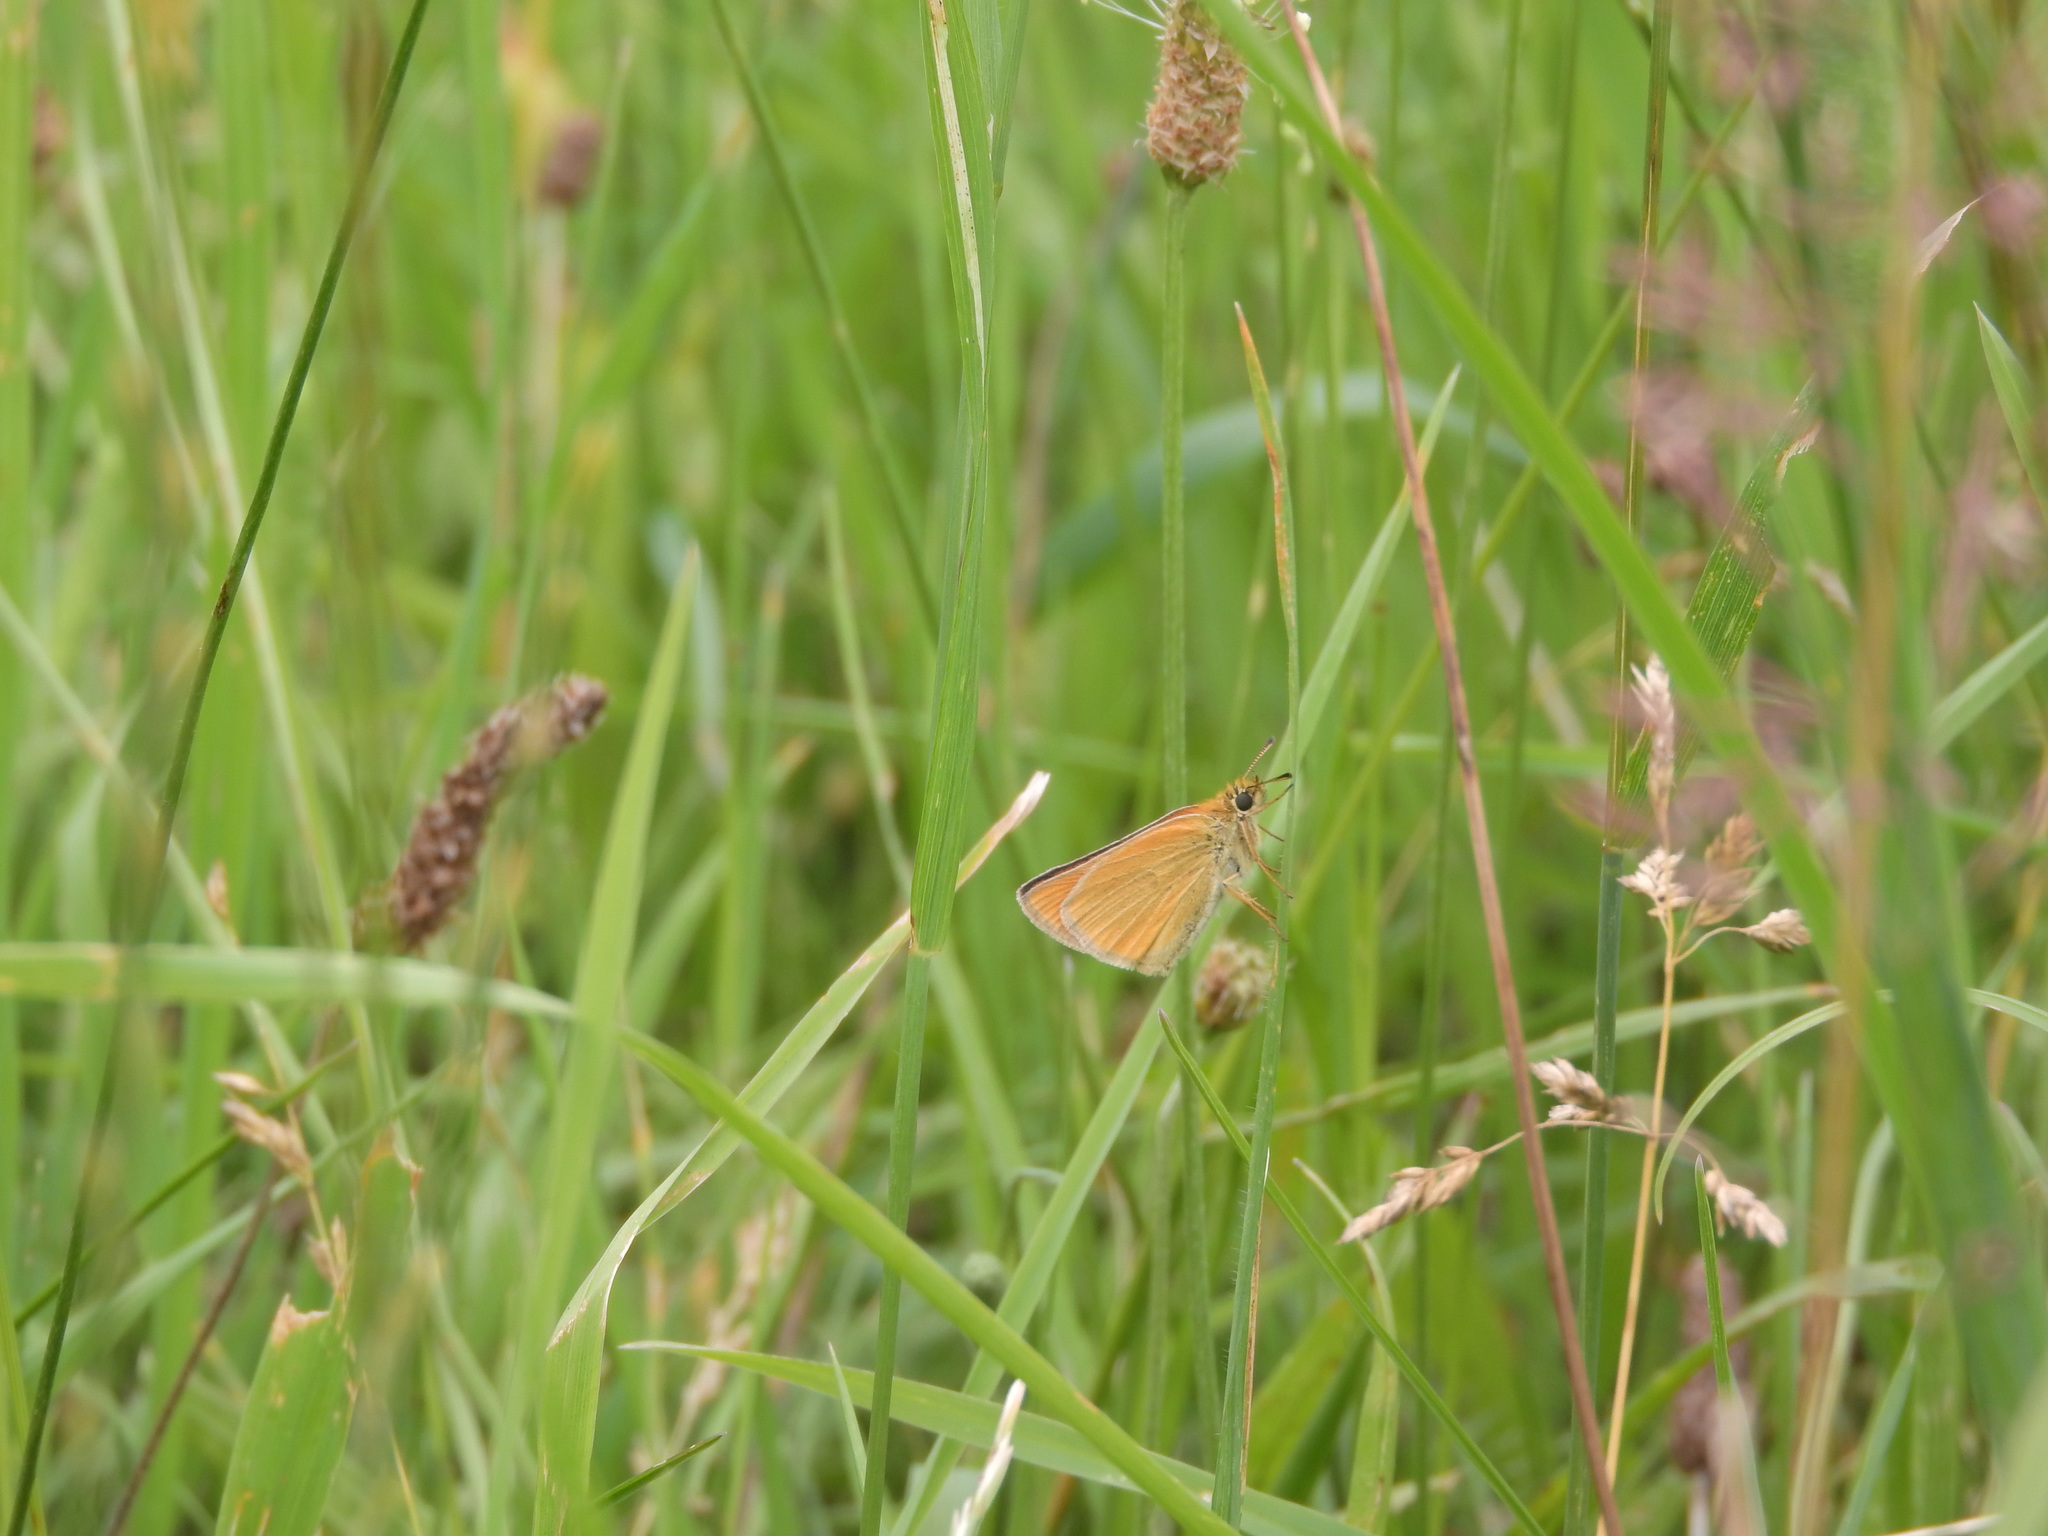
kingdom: Animalia
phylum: Arthropoda
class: Insecta
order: Lepidoptera
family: Hesperiidae
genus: Thymelicus
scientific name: Thymelicus lineola
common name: Essex skipper
